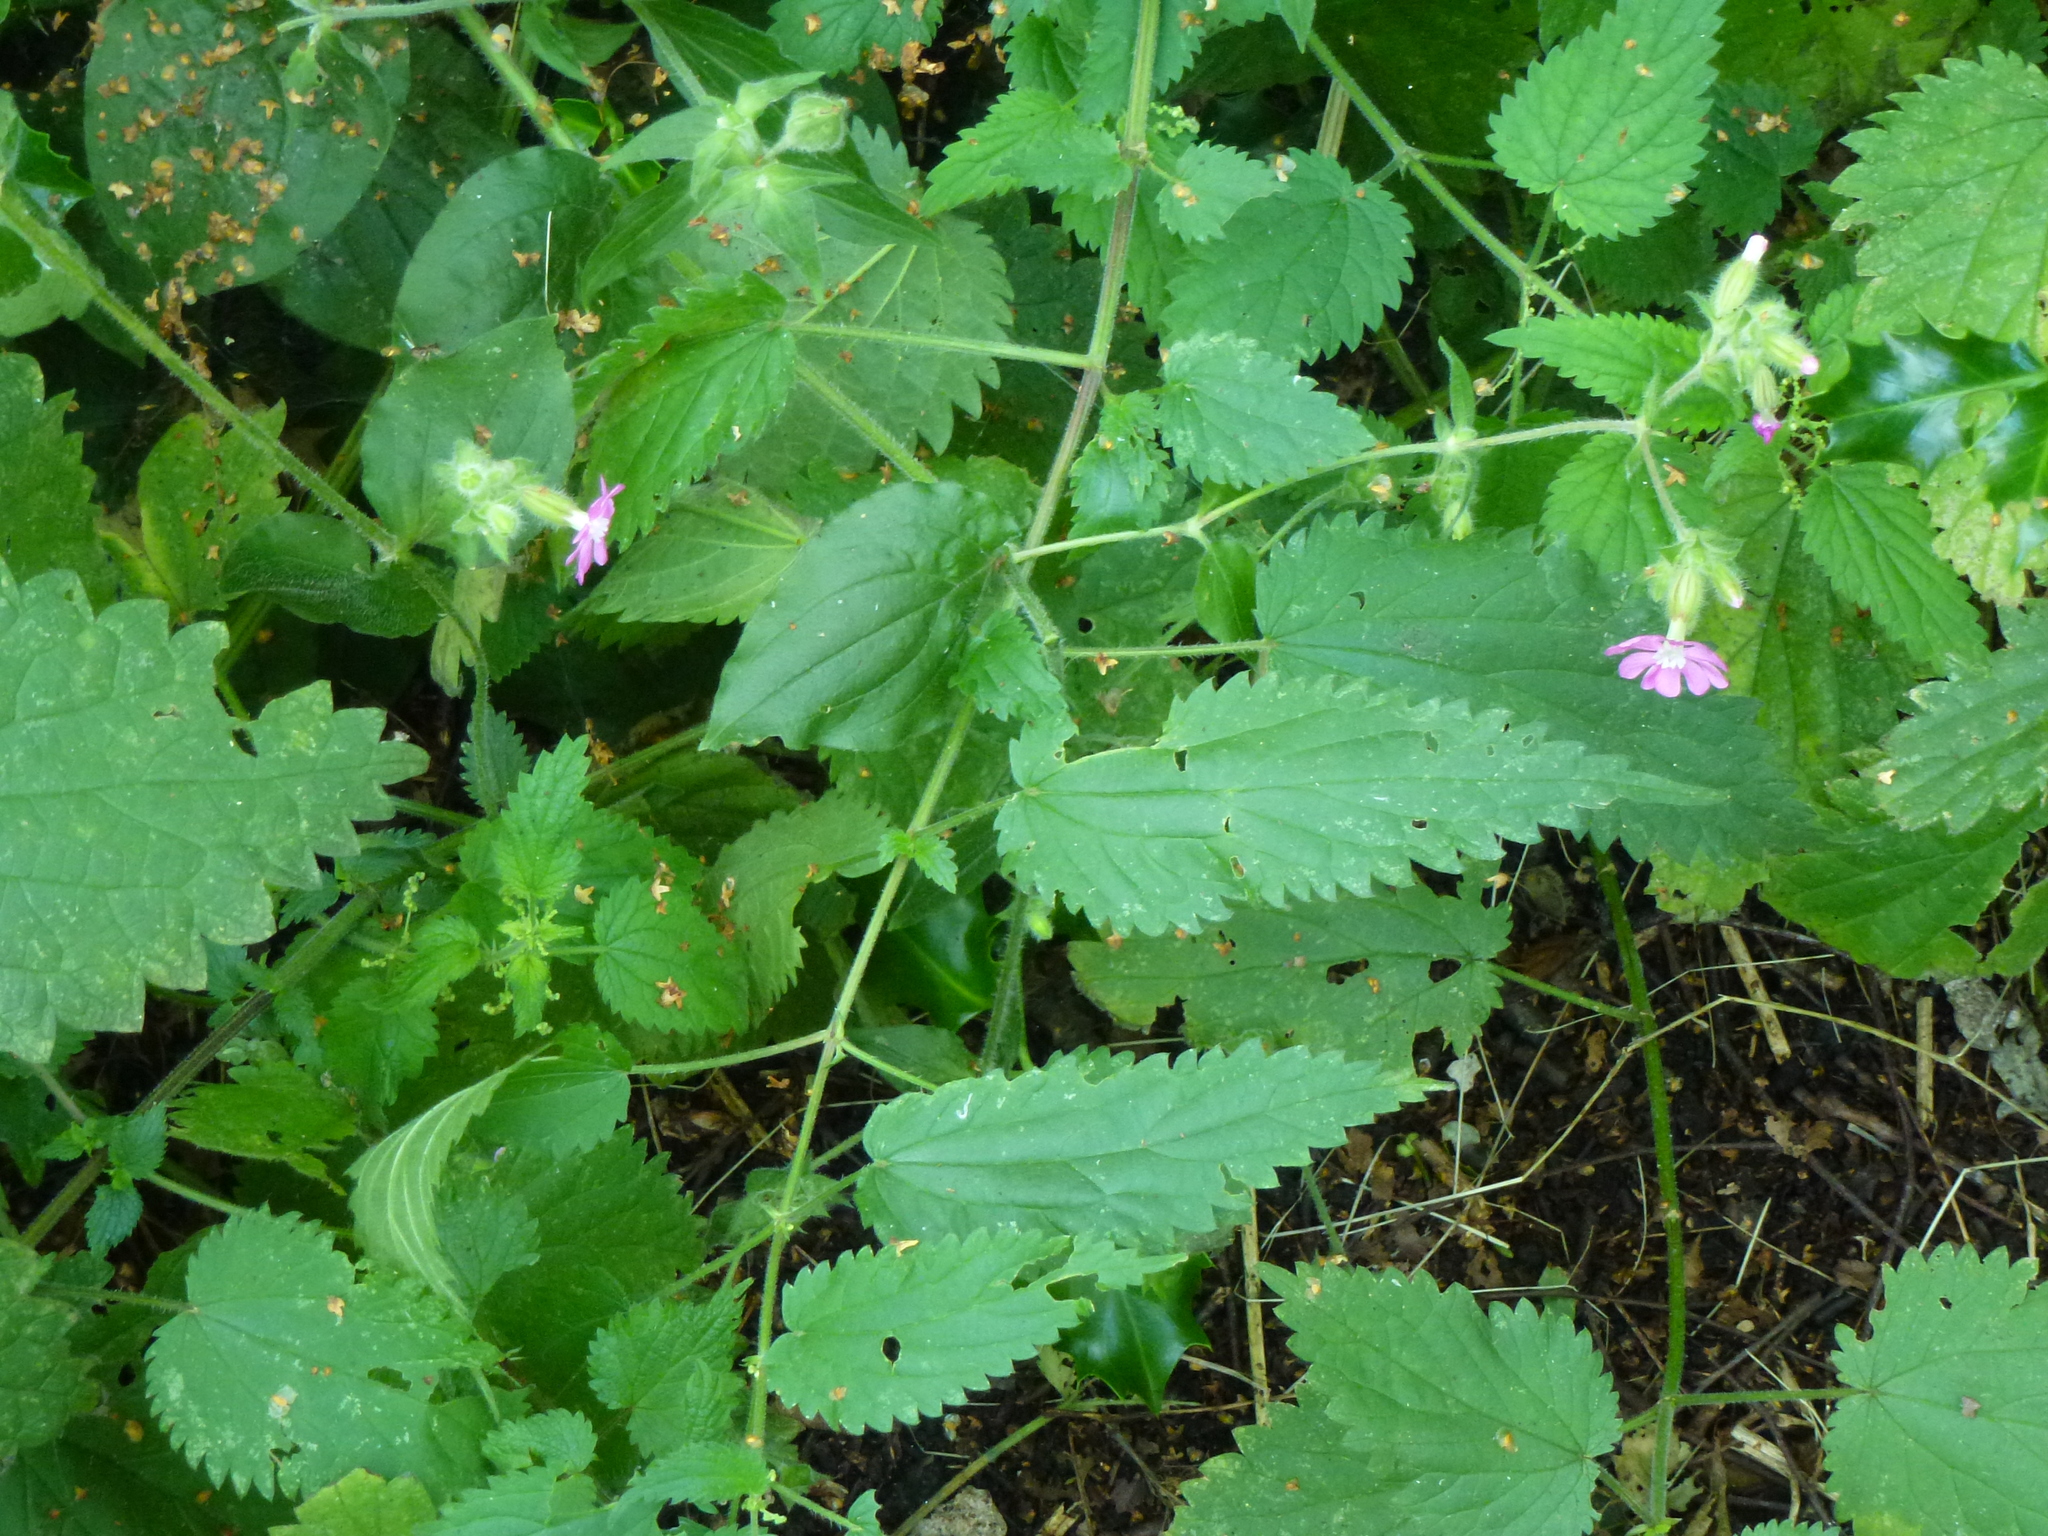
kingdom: Plantae
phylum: Tracheophyta
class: Magnoliopsida
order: Caryophyllales
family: Caryophyllaceae
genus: Silene
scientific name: Silene dioica
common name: Red campion
